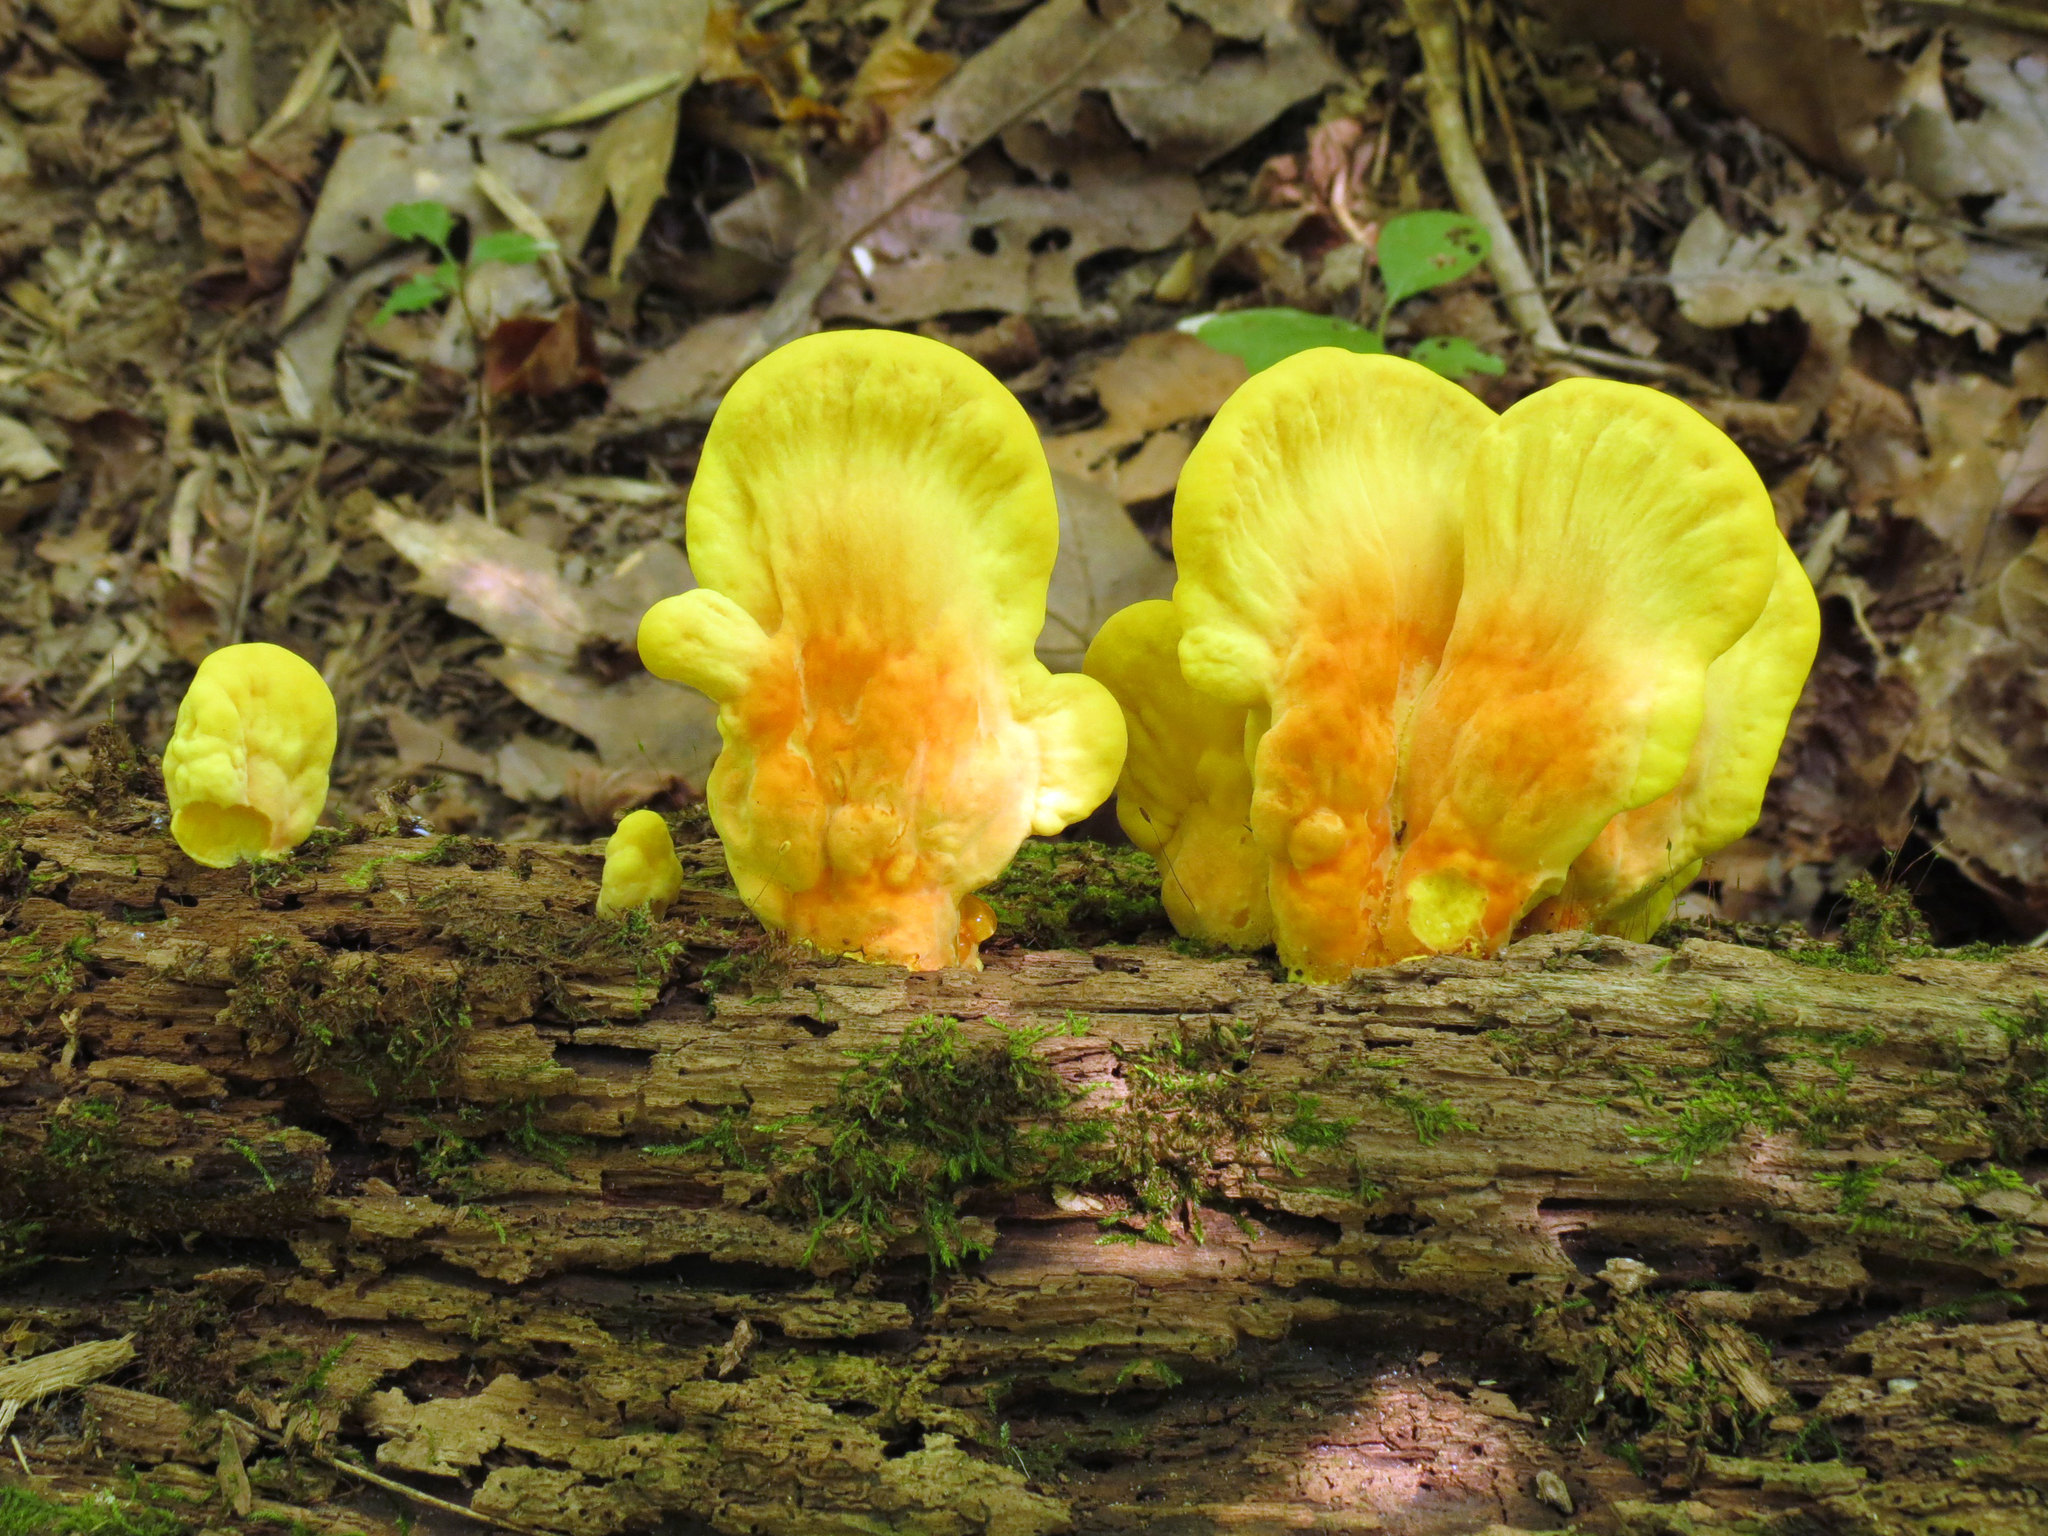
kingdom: Fungi
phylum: Basidiomycota
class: Agaricomycetes
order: Polyporales
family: Laetiporaceae
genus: Laetiporus
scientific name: Laetiporus sulphureus
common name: Chicken of the woods
